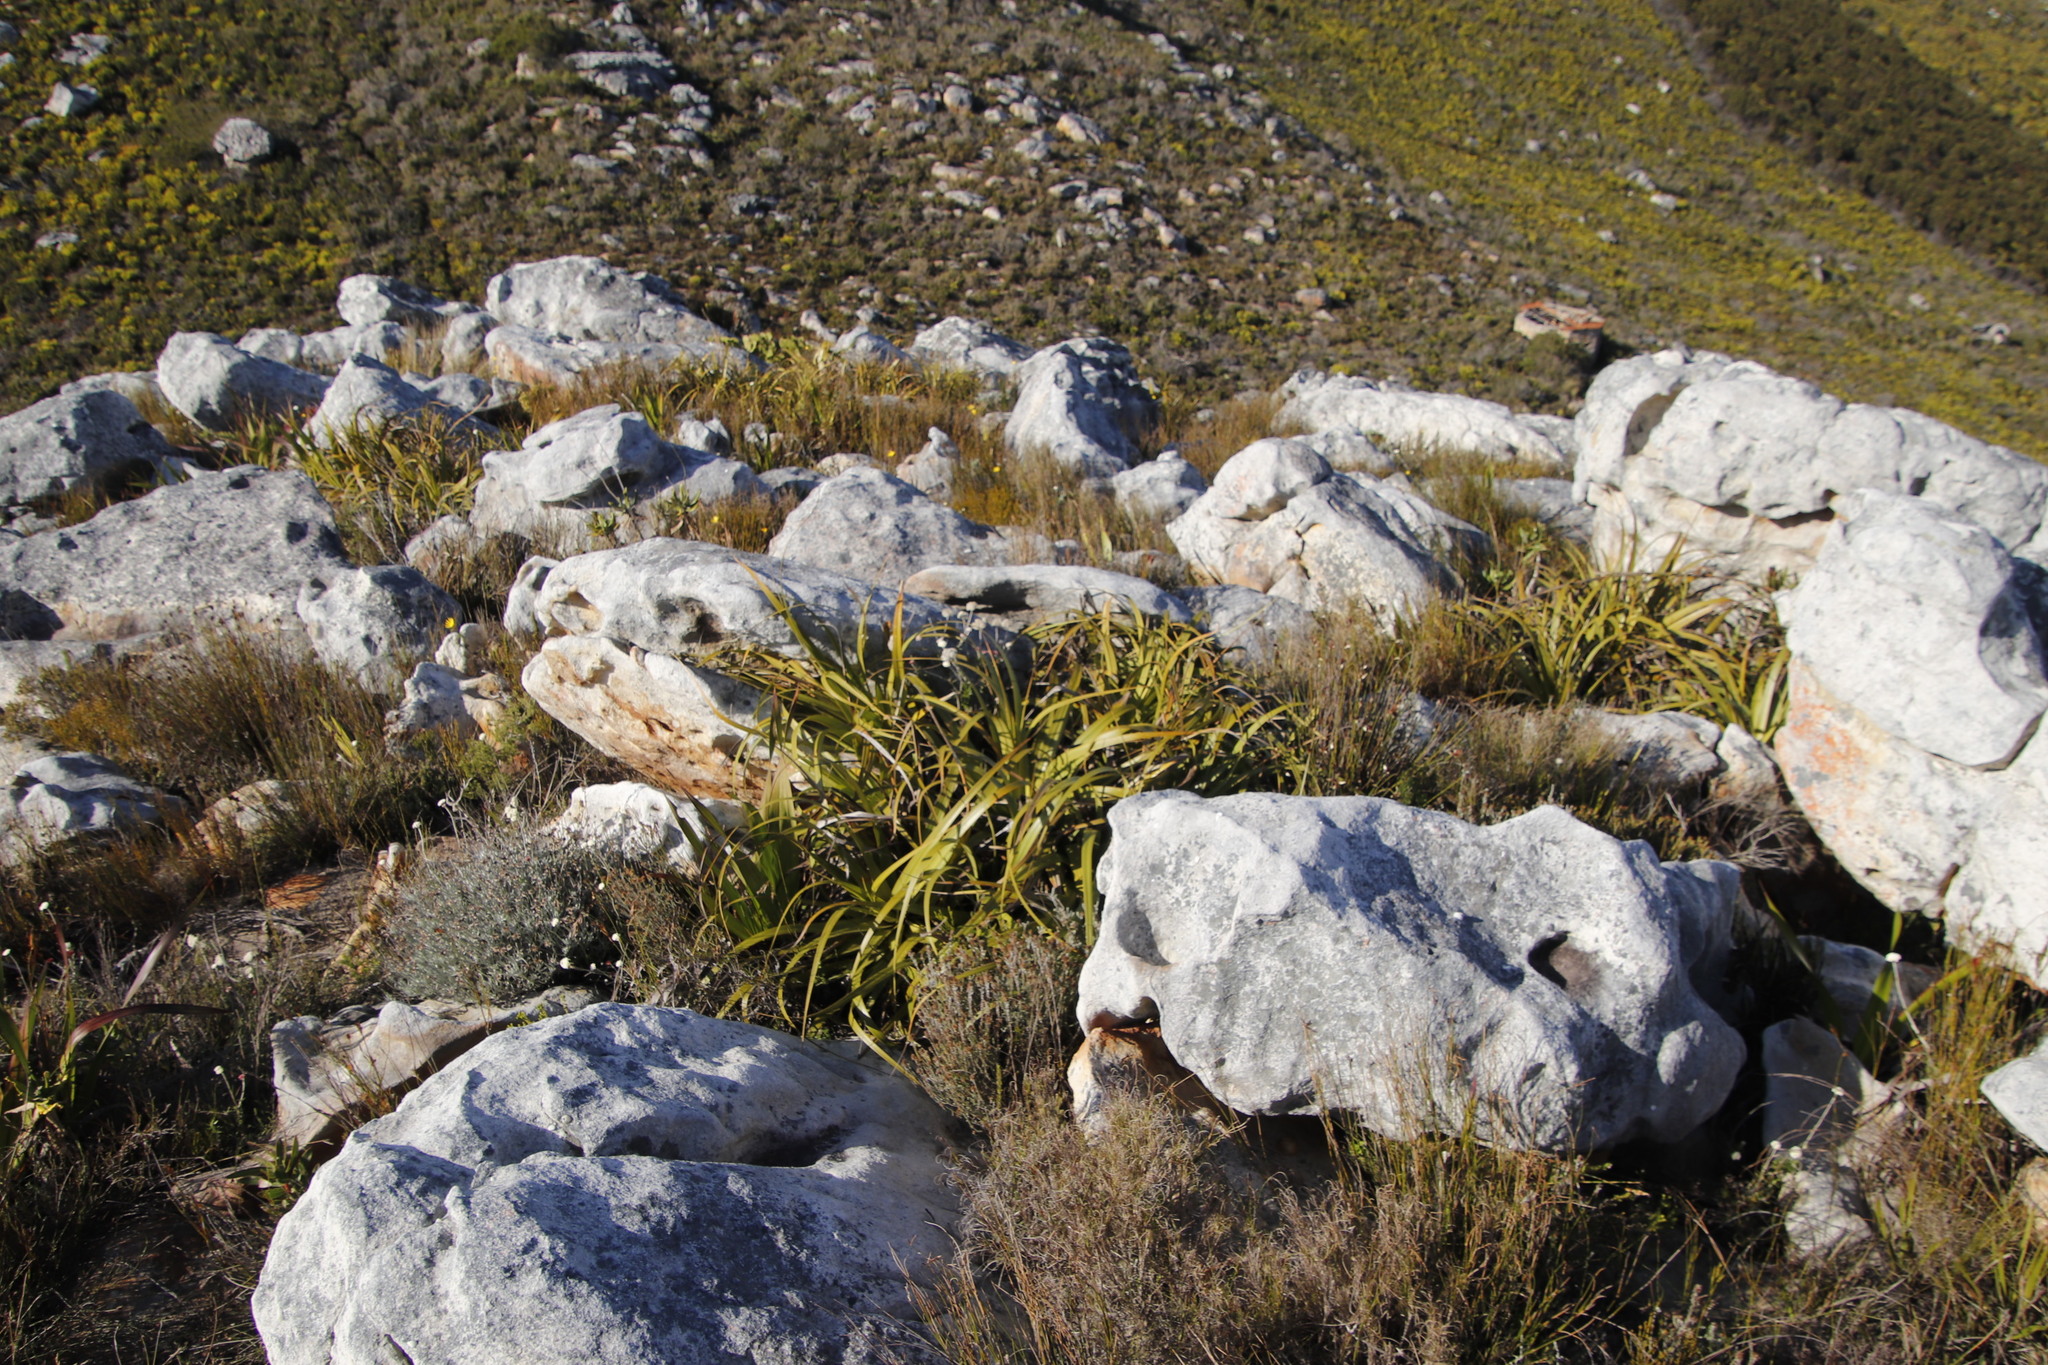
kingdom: Plantae
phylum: Tracheophyta
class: Liliopsida
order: Poales
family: Cyperaceae
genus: Tetraria
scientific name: Tetraria thermalis
